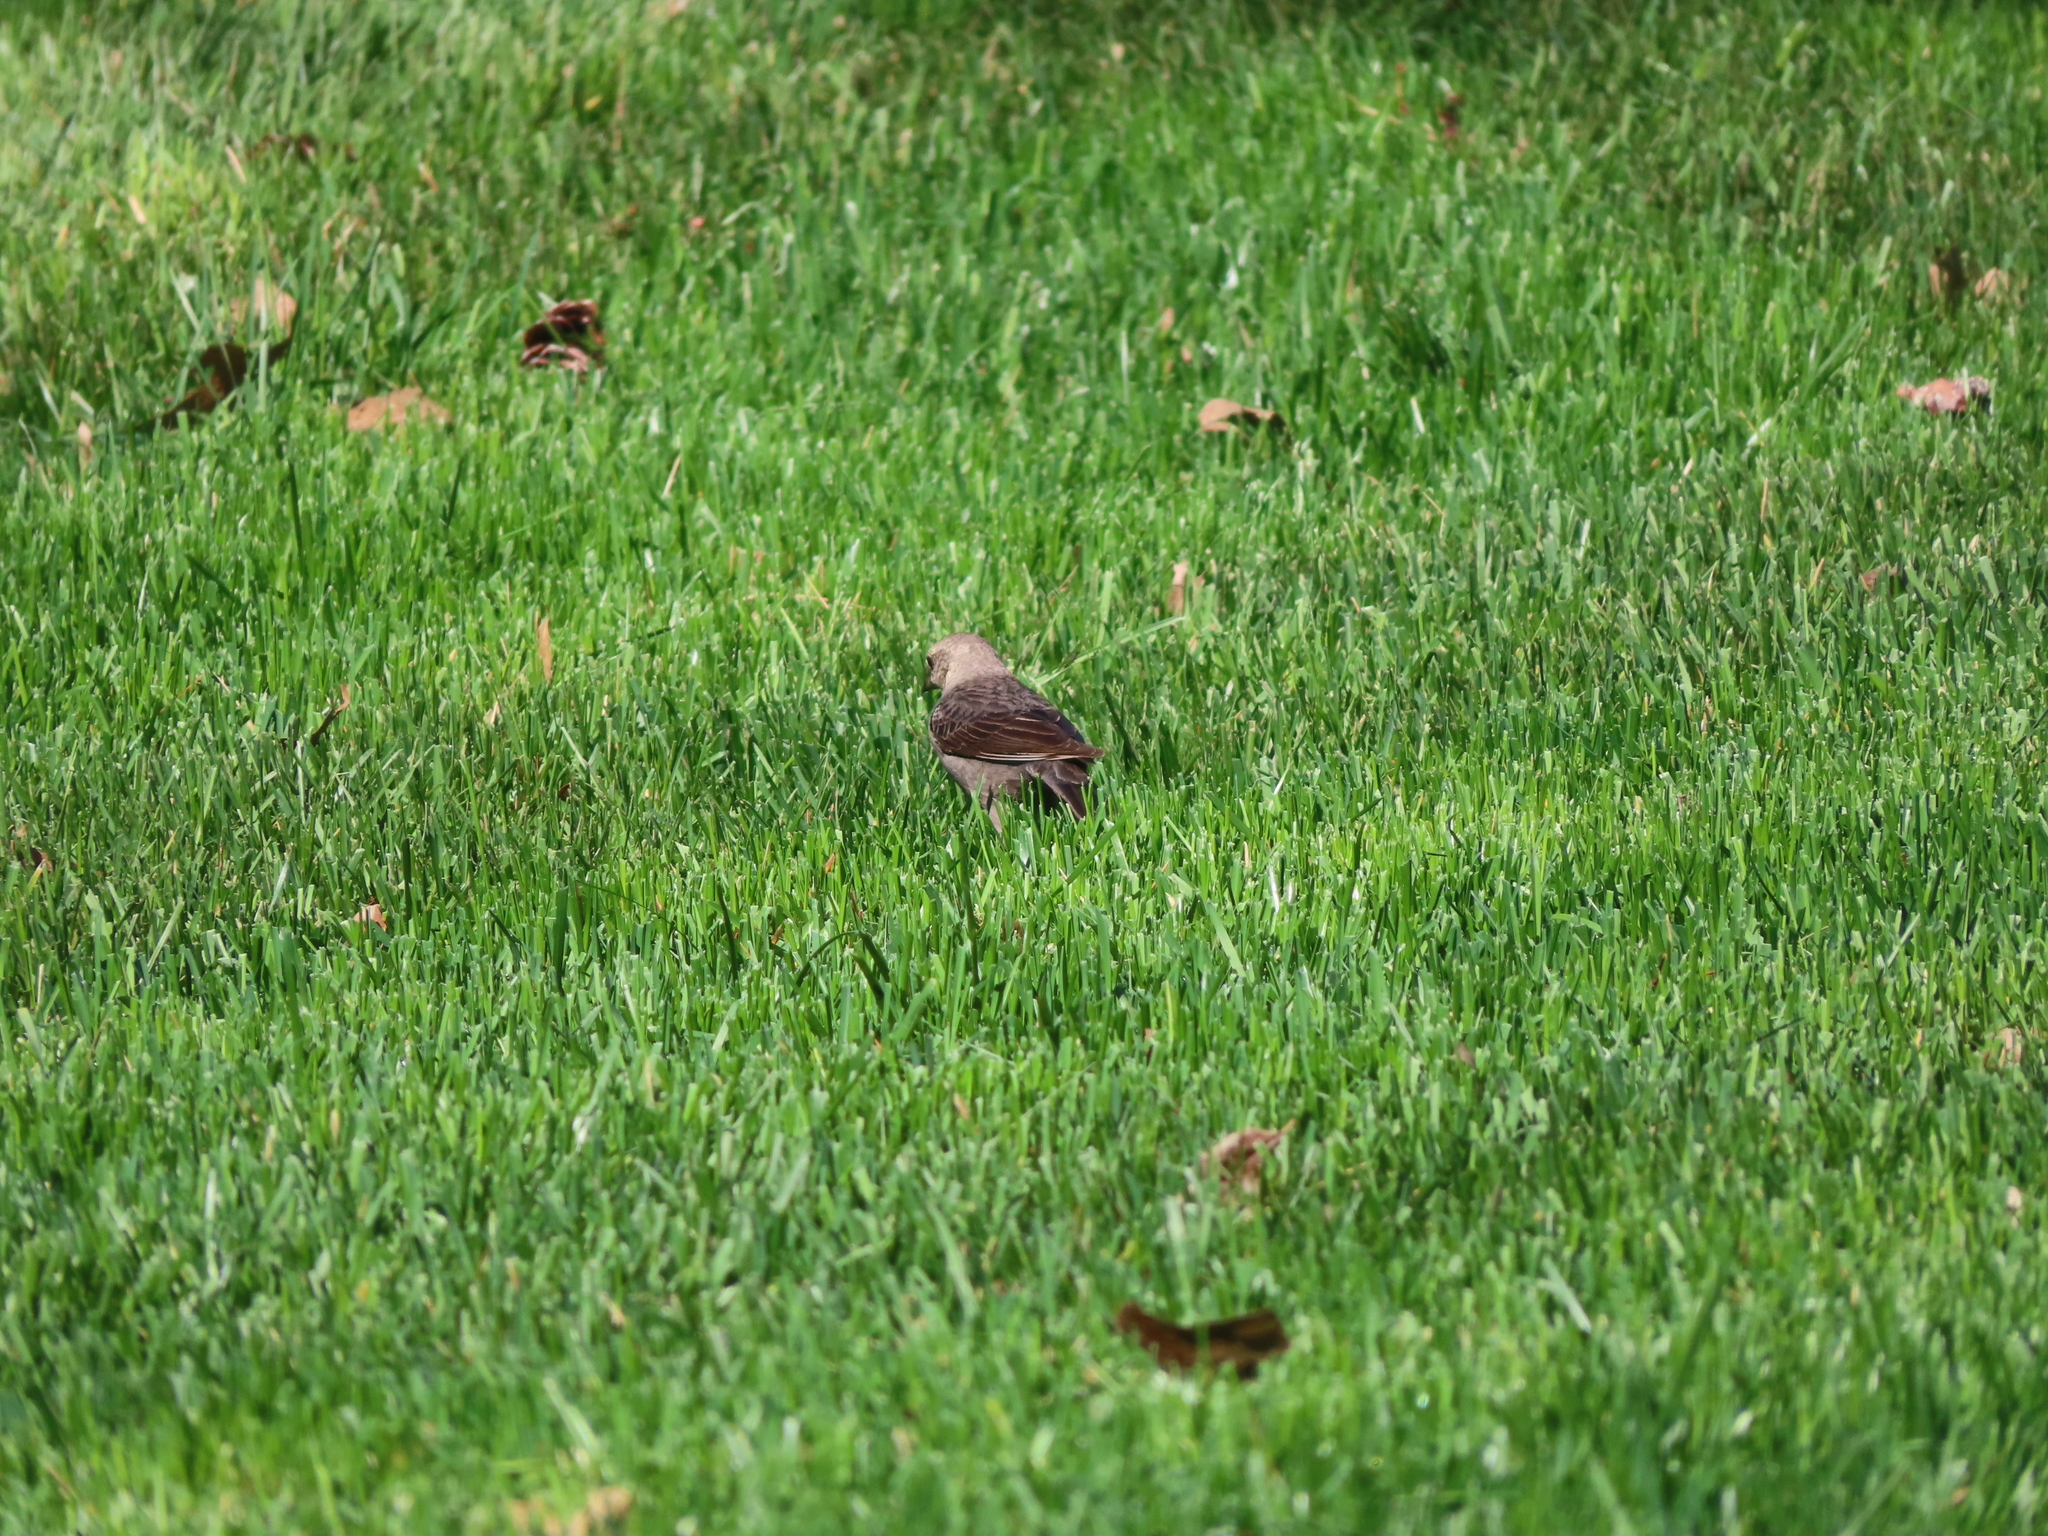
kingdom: Animalia
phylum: Chordata
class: Aves
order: Passeriformes
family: Icteridae
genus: Molothrus
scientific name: Molothrus ater
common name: Brown-headed cowbird
